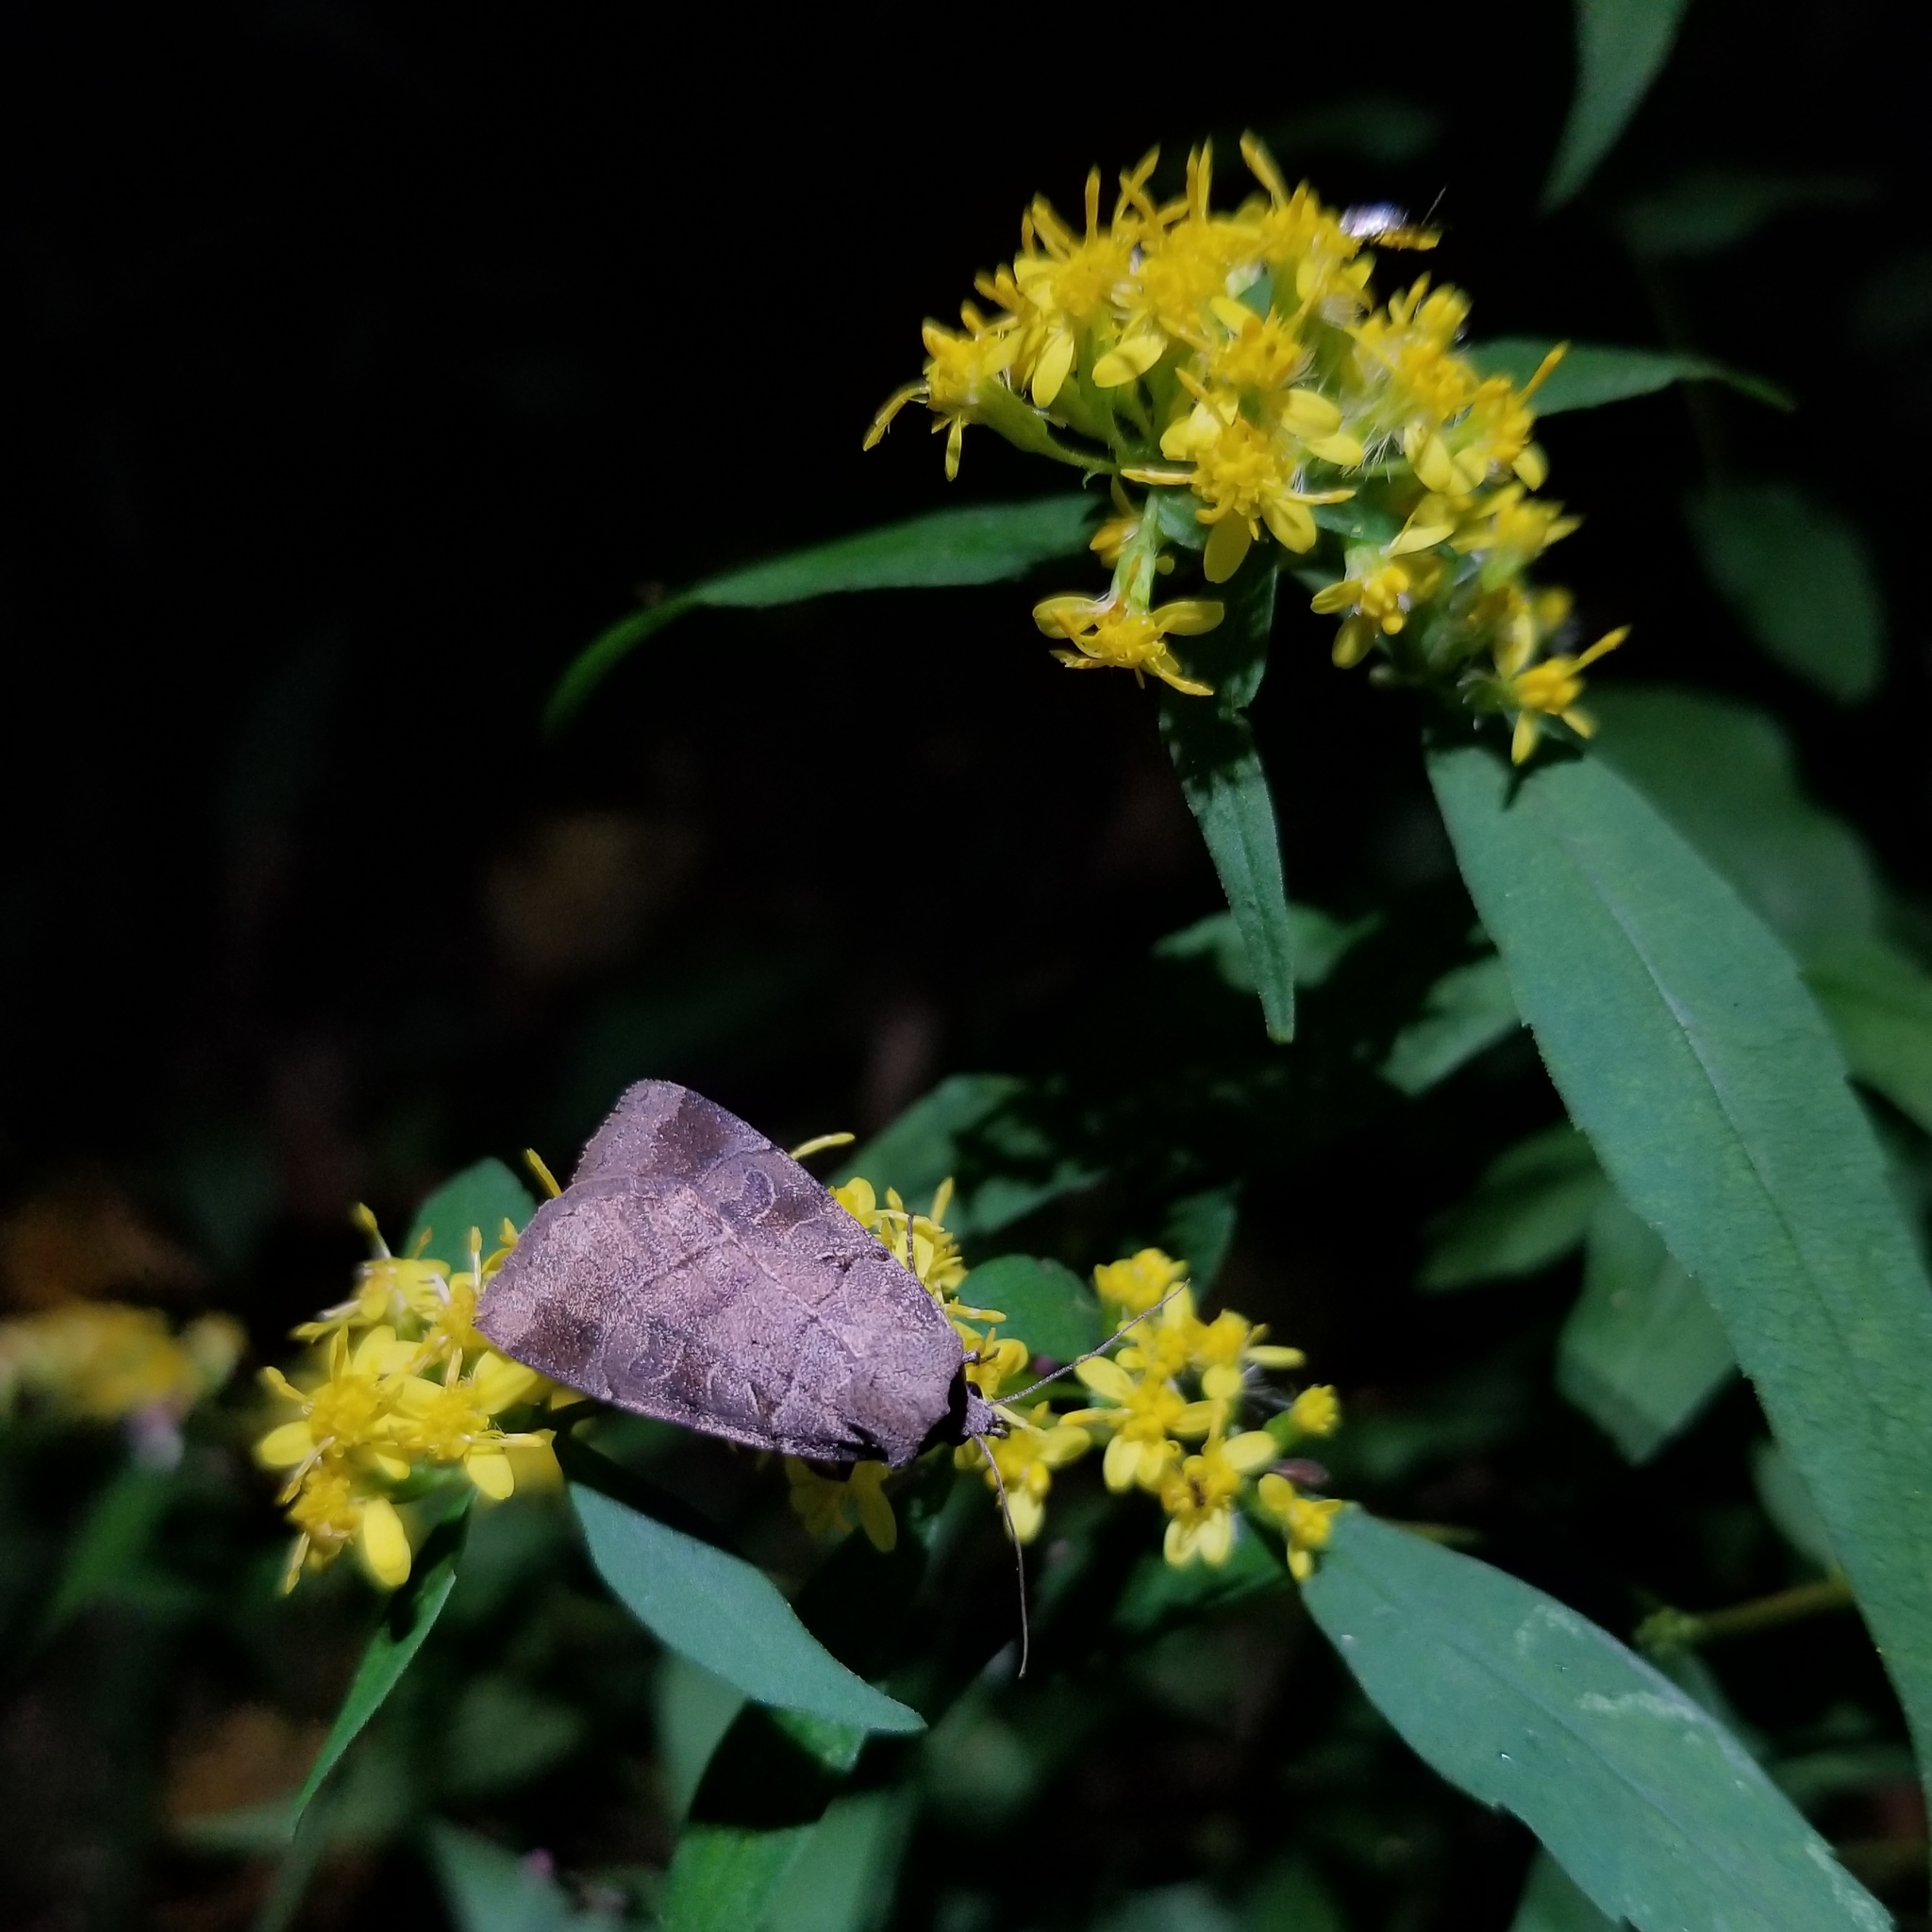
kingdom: Animalia
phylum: Arthropoda
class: Insecta
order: Lepidoptera
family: Noctuidae
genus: Agnorisma
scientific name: Agnorisma badinodis
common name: Pale-banded dart
